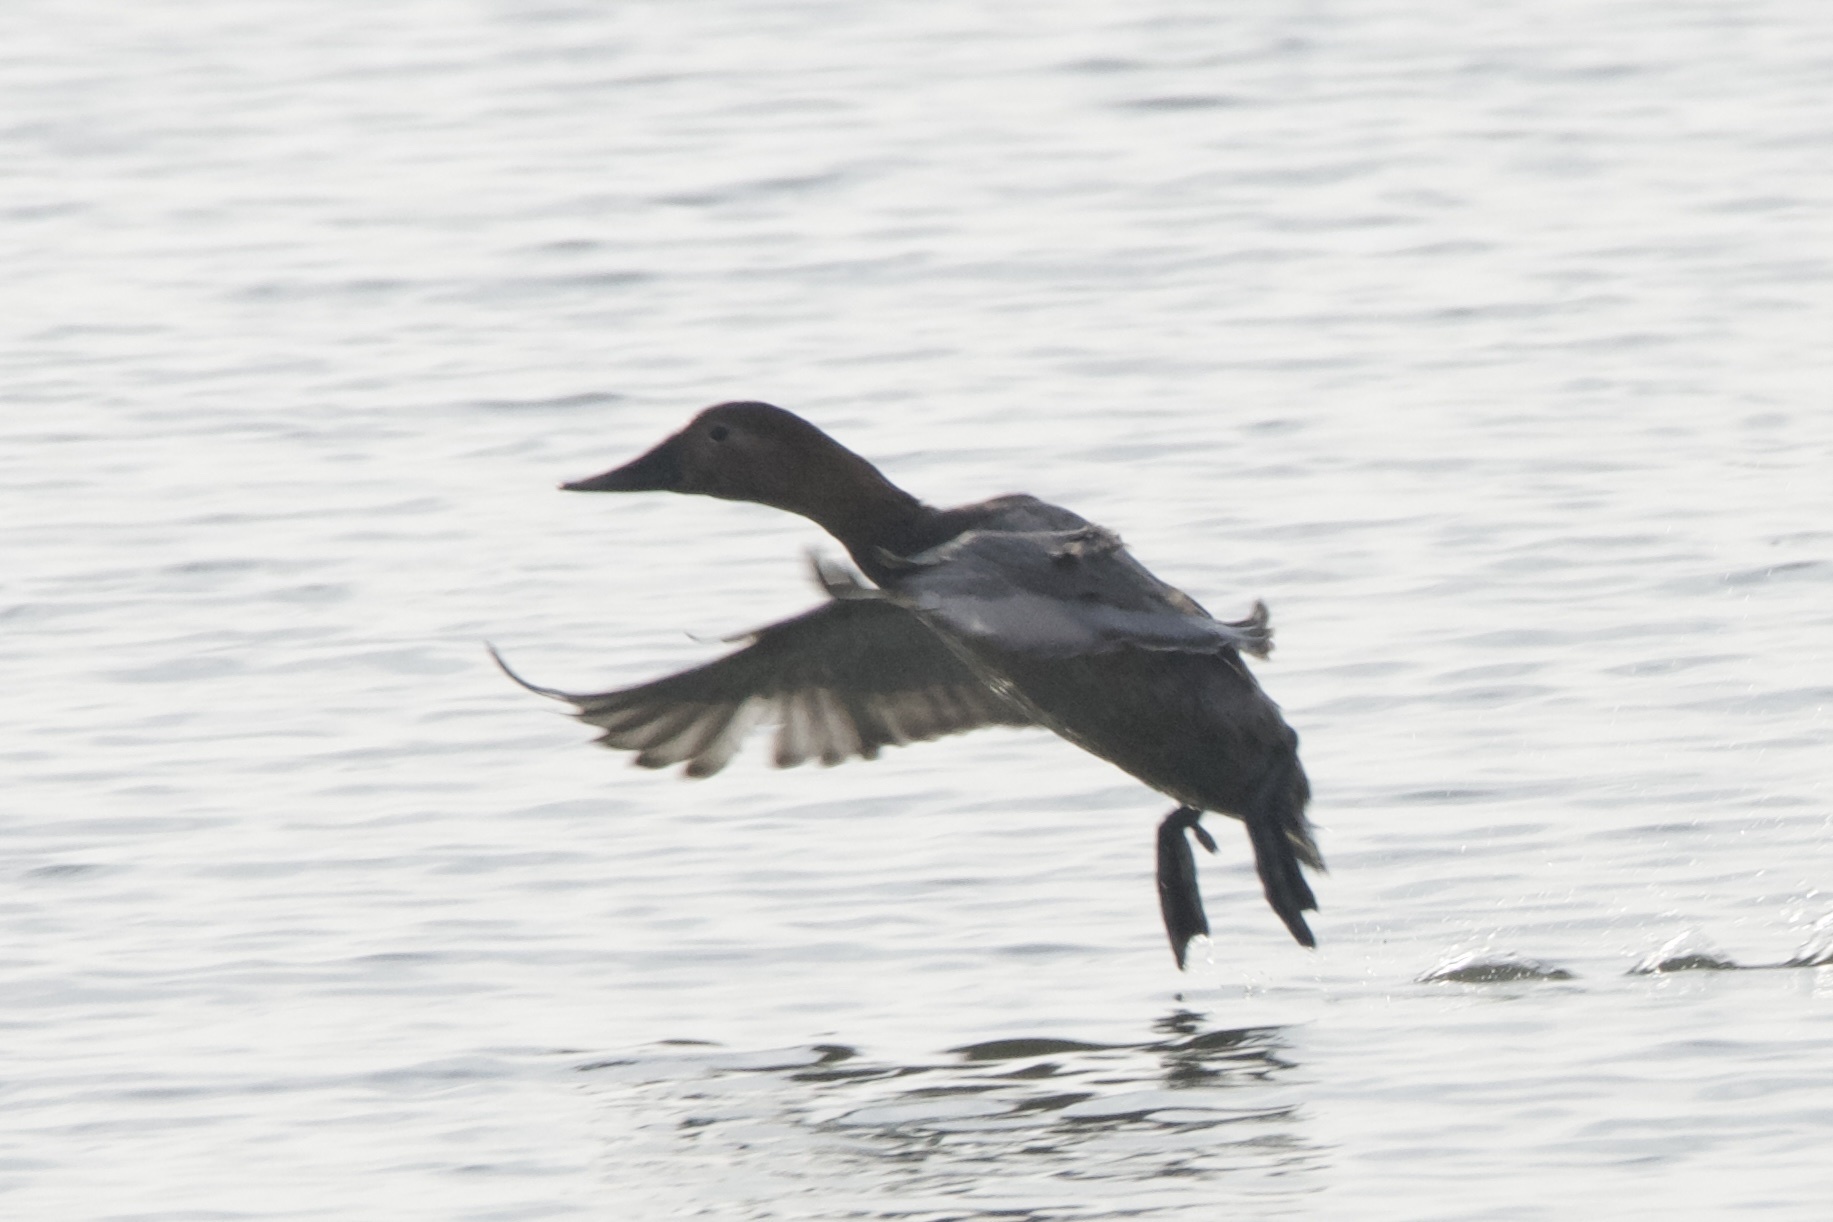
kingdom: Animalia
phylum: Chordata
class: Aves
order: Anseriformes
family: Anatidae
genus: Aythya
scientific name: Aythya valisineria
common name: Canvasback
